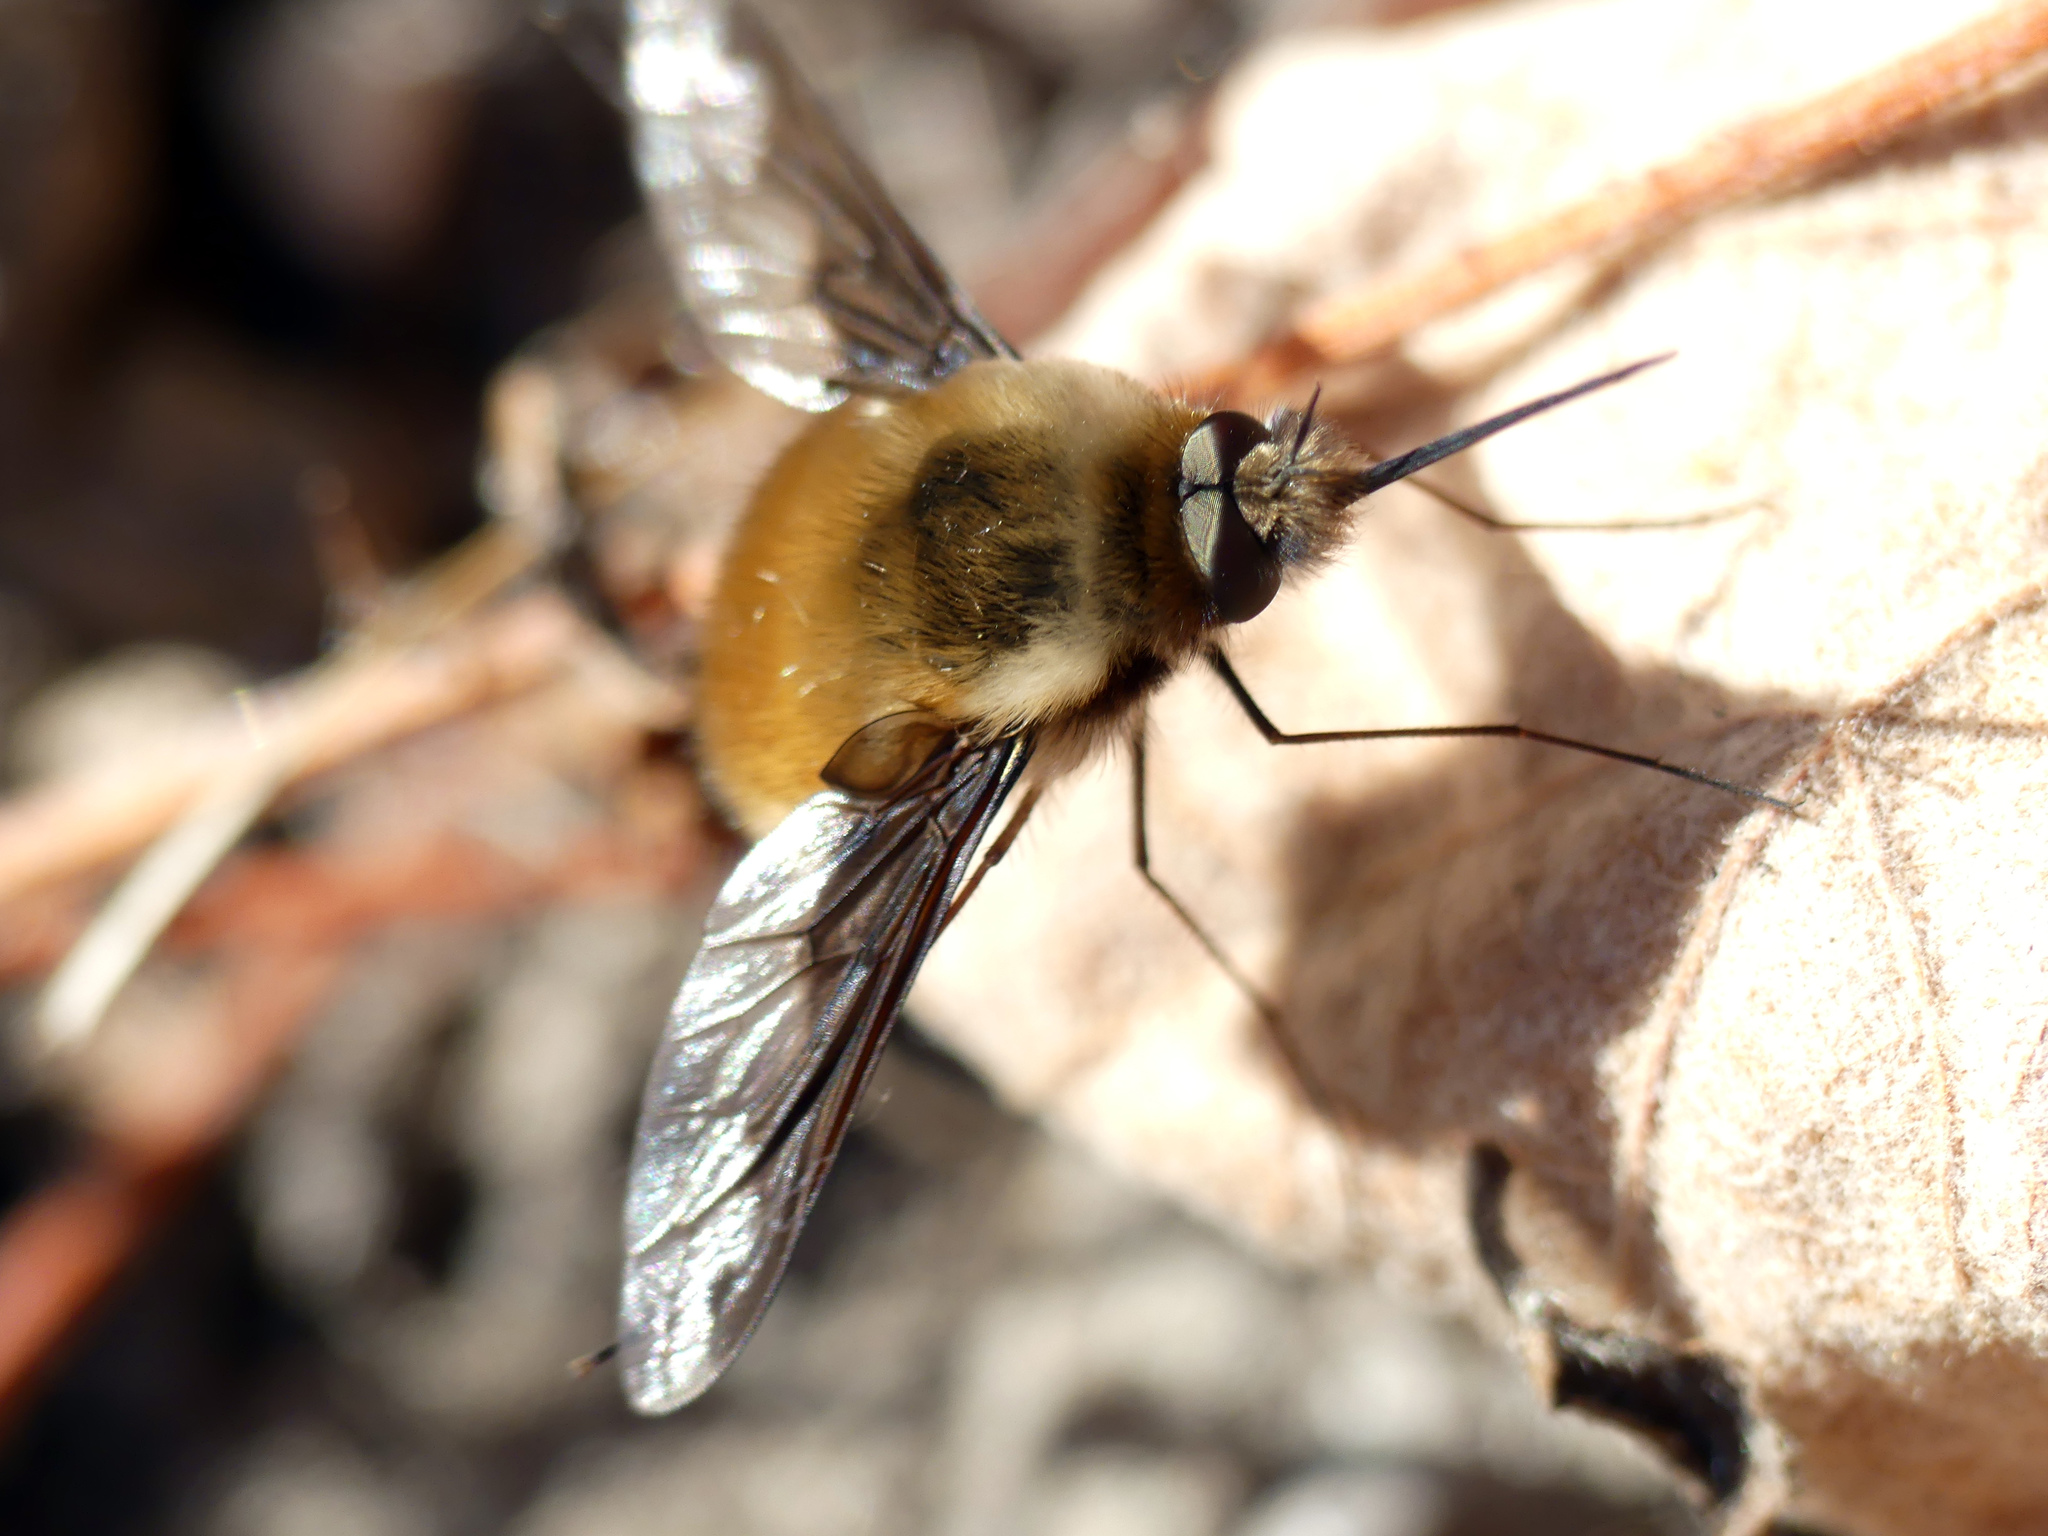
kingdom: Animalia
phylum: Arthropoda
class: Insecta
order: Diptera
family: Bombyliidae
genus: Bombylius
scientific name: Bombylius major
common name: Bee fly
